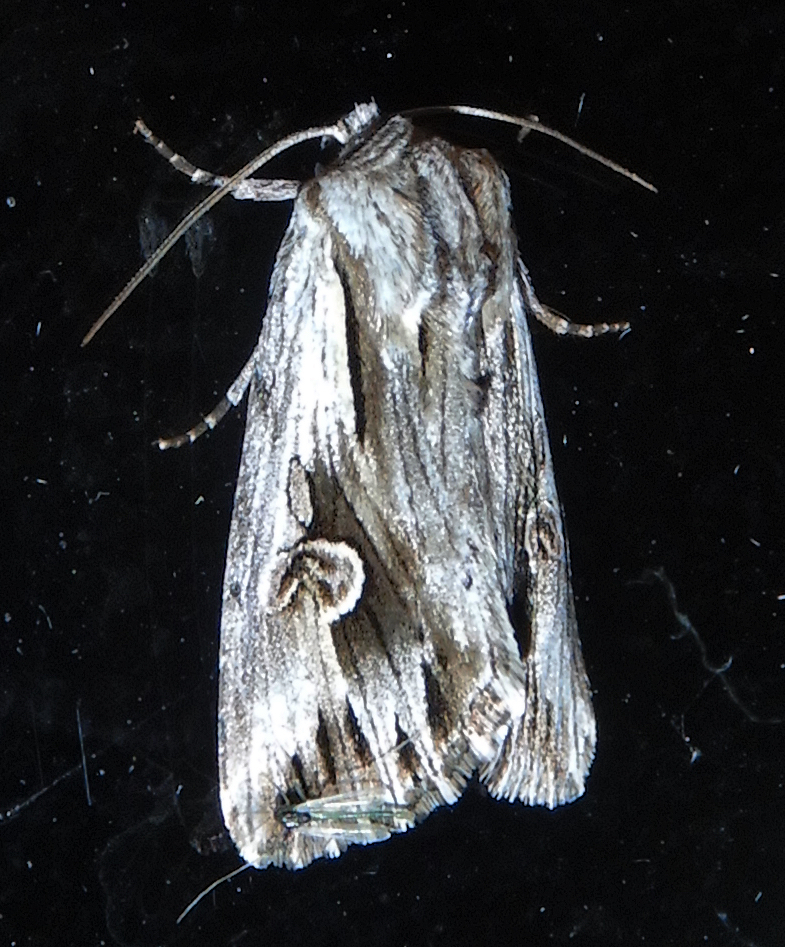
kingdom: Animalia
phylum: Arthropoda
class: Insecta
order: Lepidoptera
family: Noctuidae
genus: Nedra
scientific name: Nedra ramosula
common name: Gray half-spot
